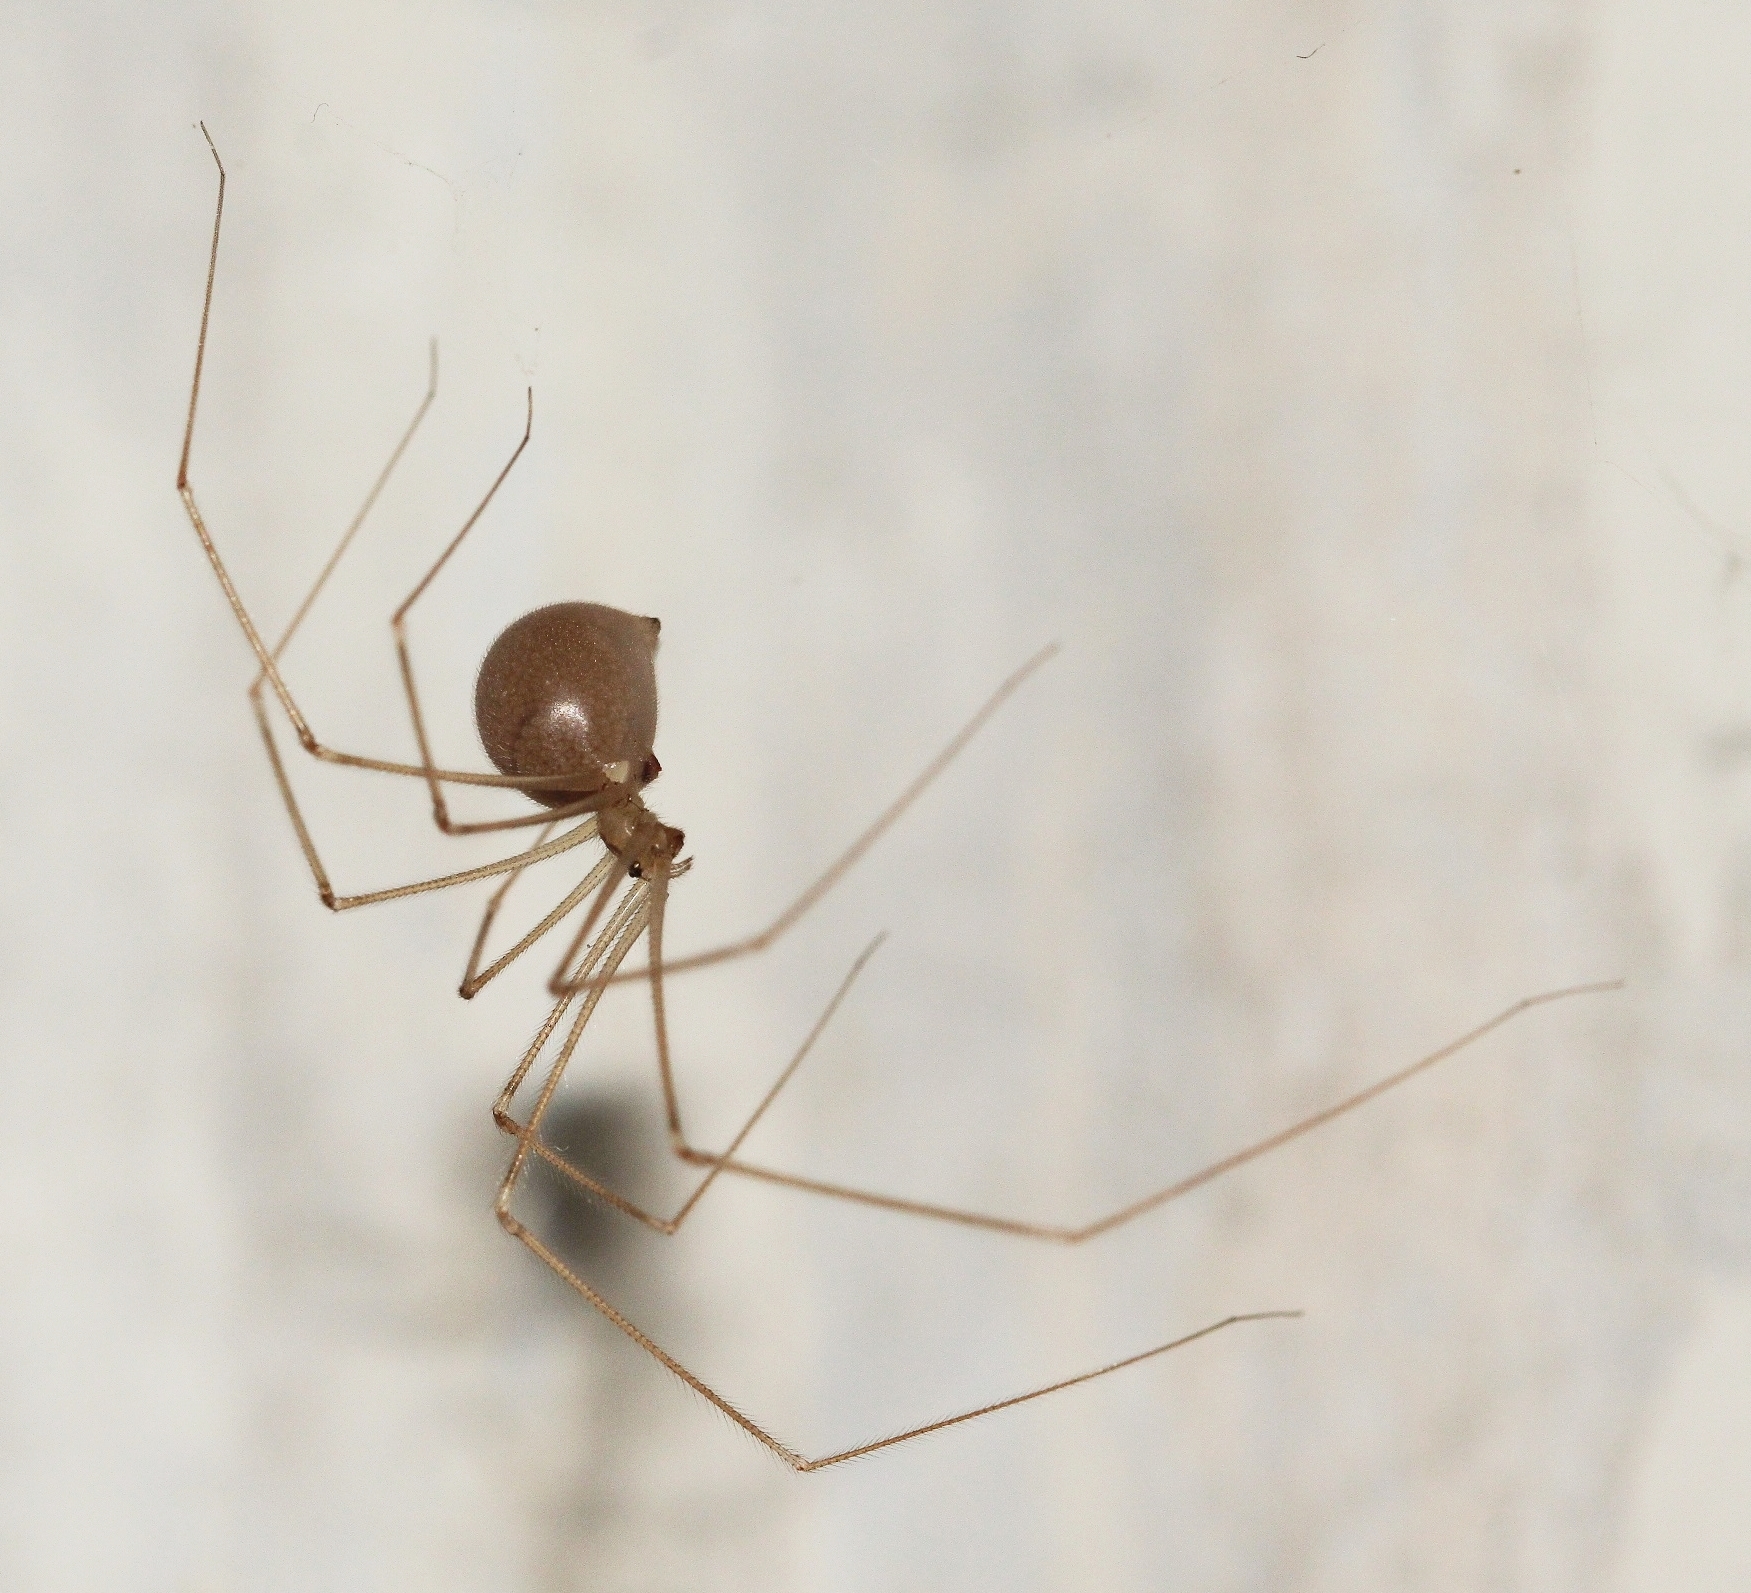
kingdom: Animalia
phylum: Arthropoda
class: Arachnida
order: Araneae
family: Pholcidae
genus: Pholcus
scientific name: Pholcus phalangioides
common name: Longbodied cellar spider
